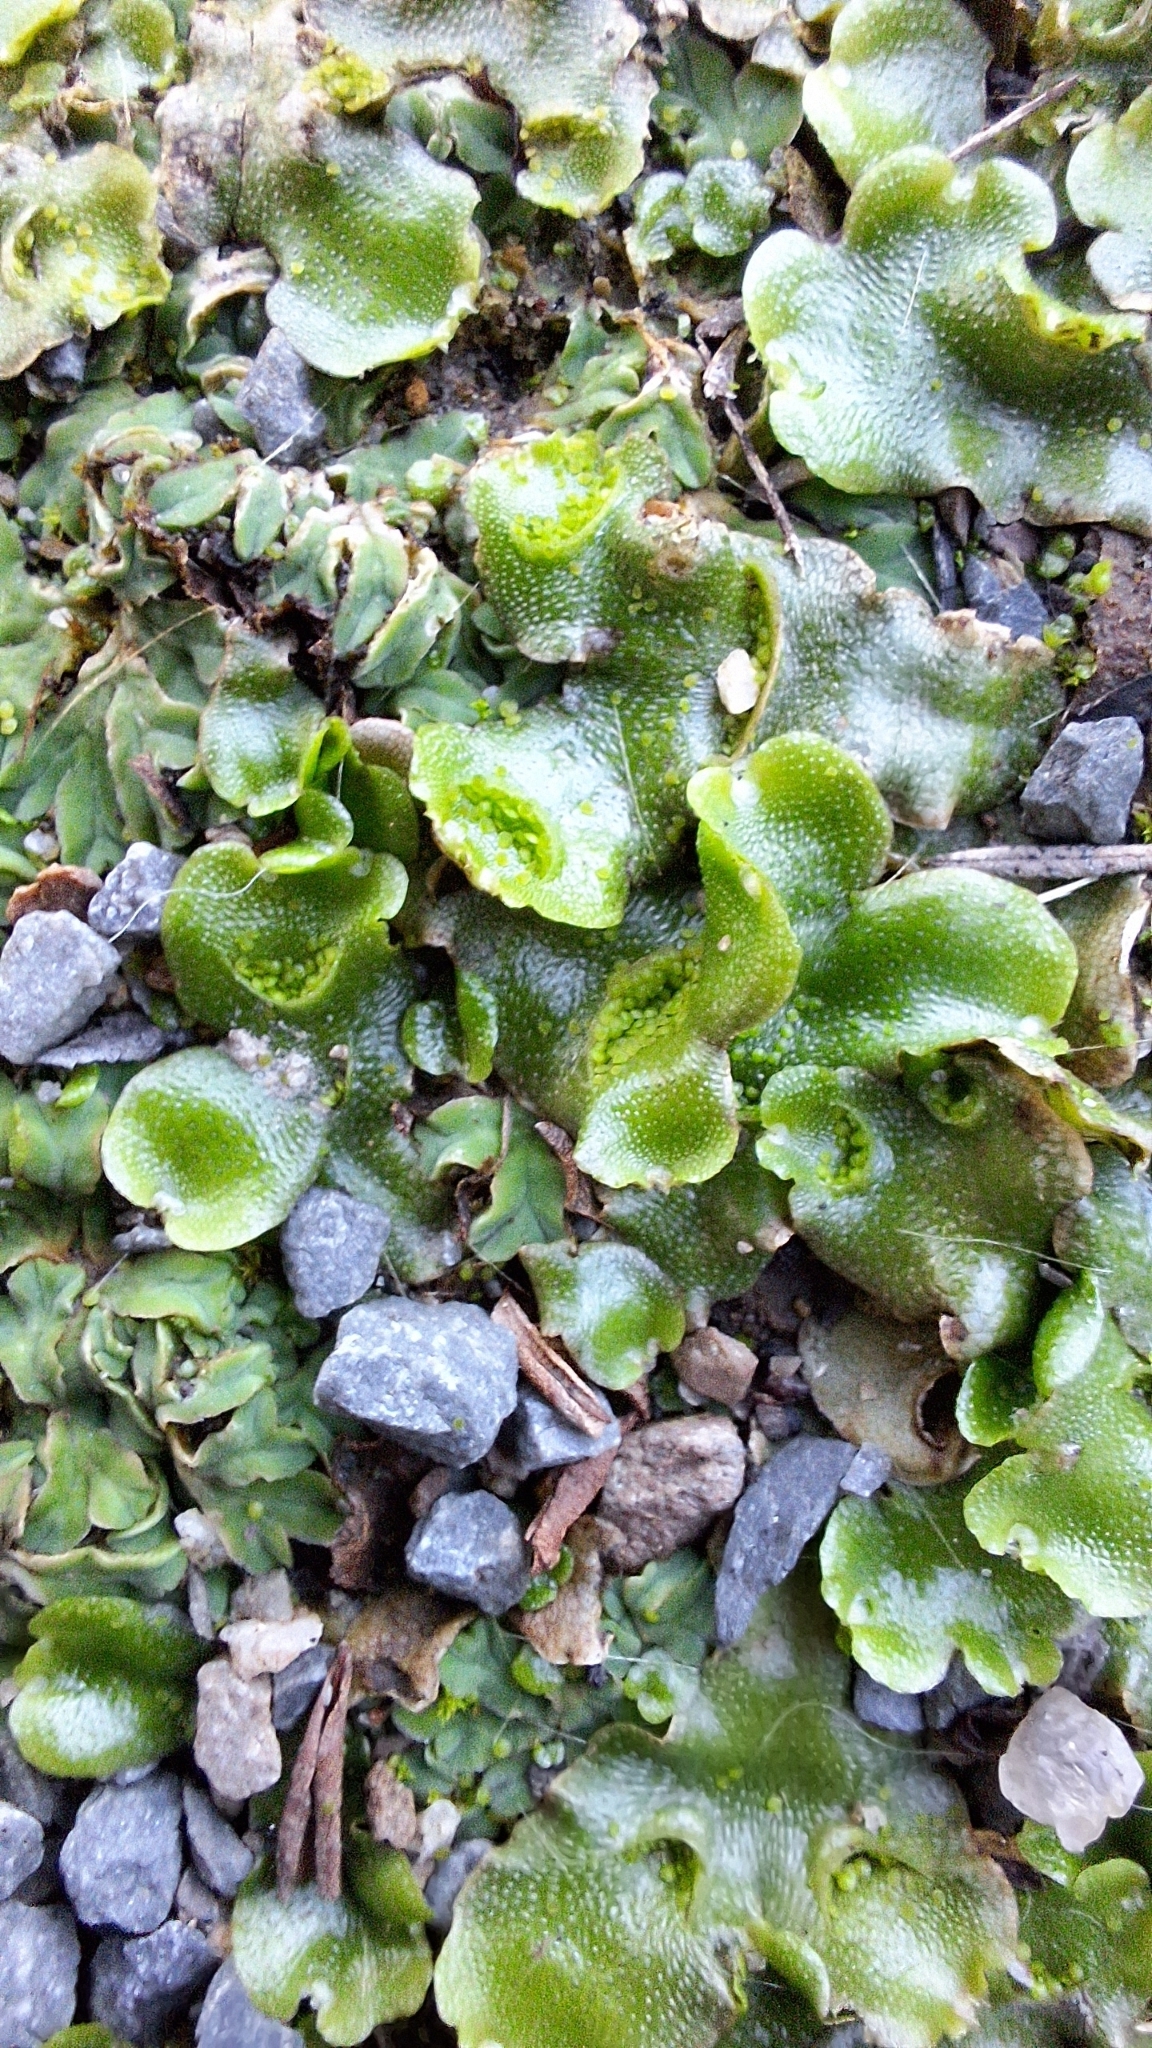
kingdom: Plantae
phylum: Marchantiophyta
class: Marchantiopsida
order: Lunulariales
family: Lunulariaceae
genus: Lunularia
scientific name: Lunularia cruciata
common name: Crescent-cup liverwort
